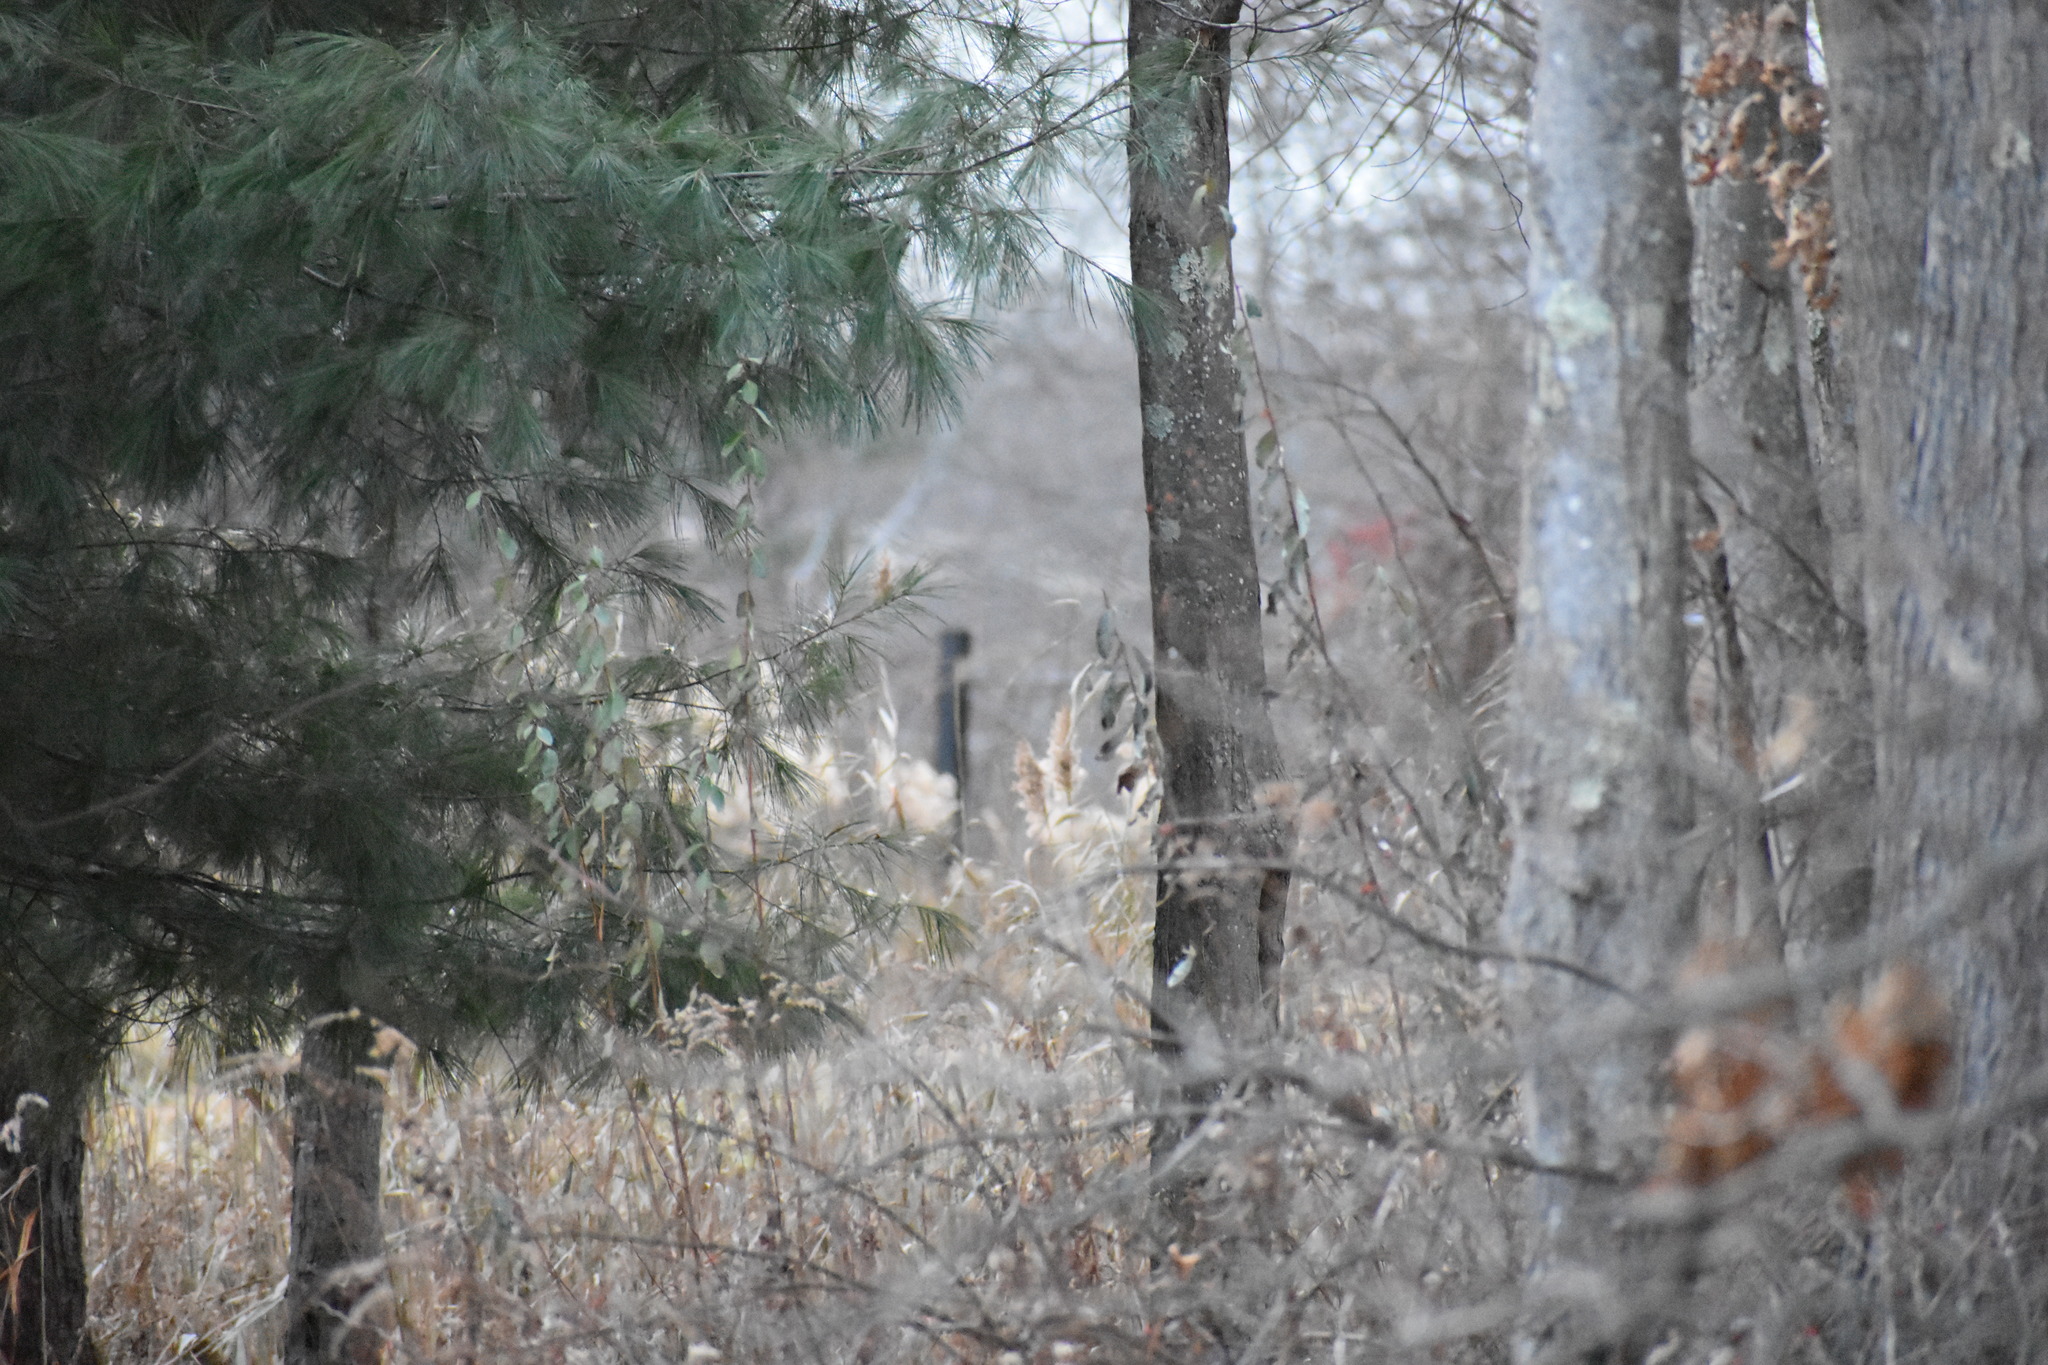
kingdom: Plantae
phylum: Tracheophyta
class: Pinopsida
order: Pinales
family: Pinaceae
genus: Pinus
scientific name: Pinus strobus
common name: Weymouth pine
